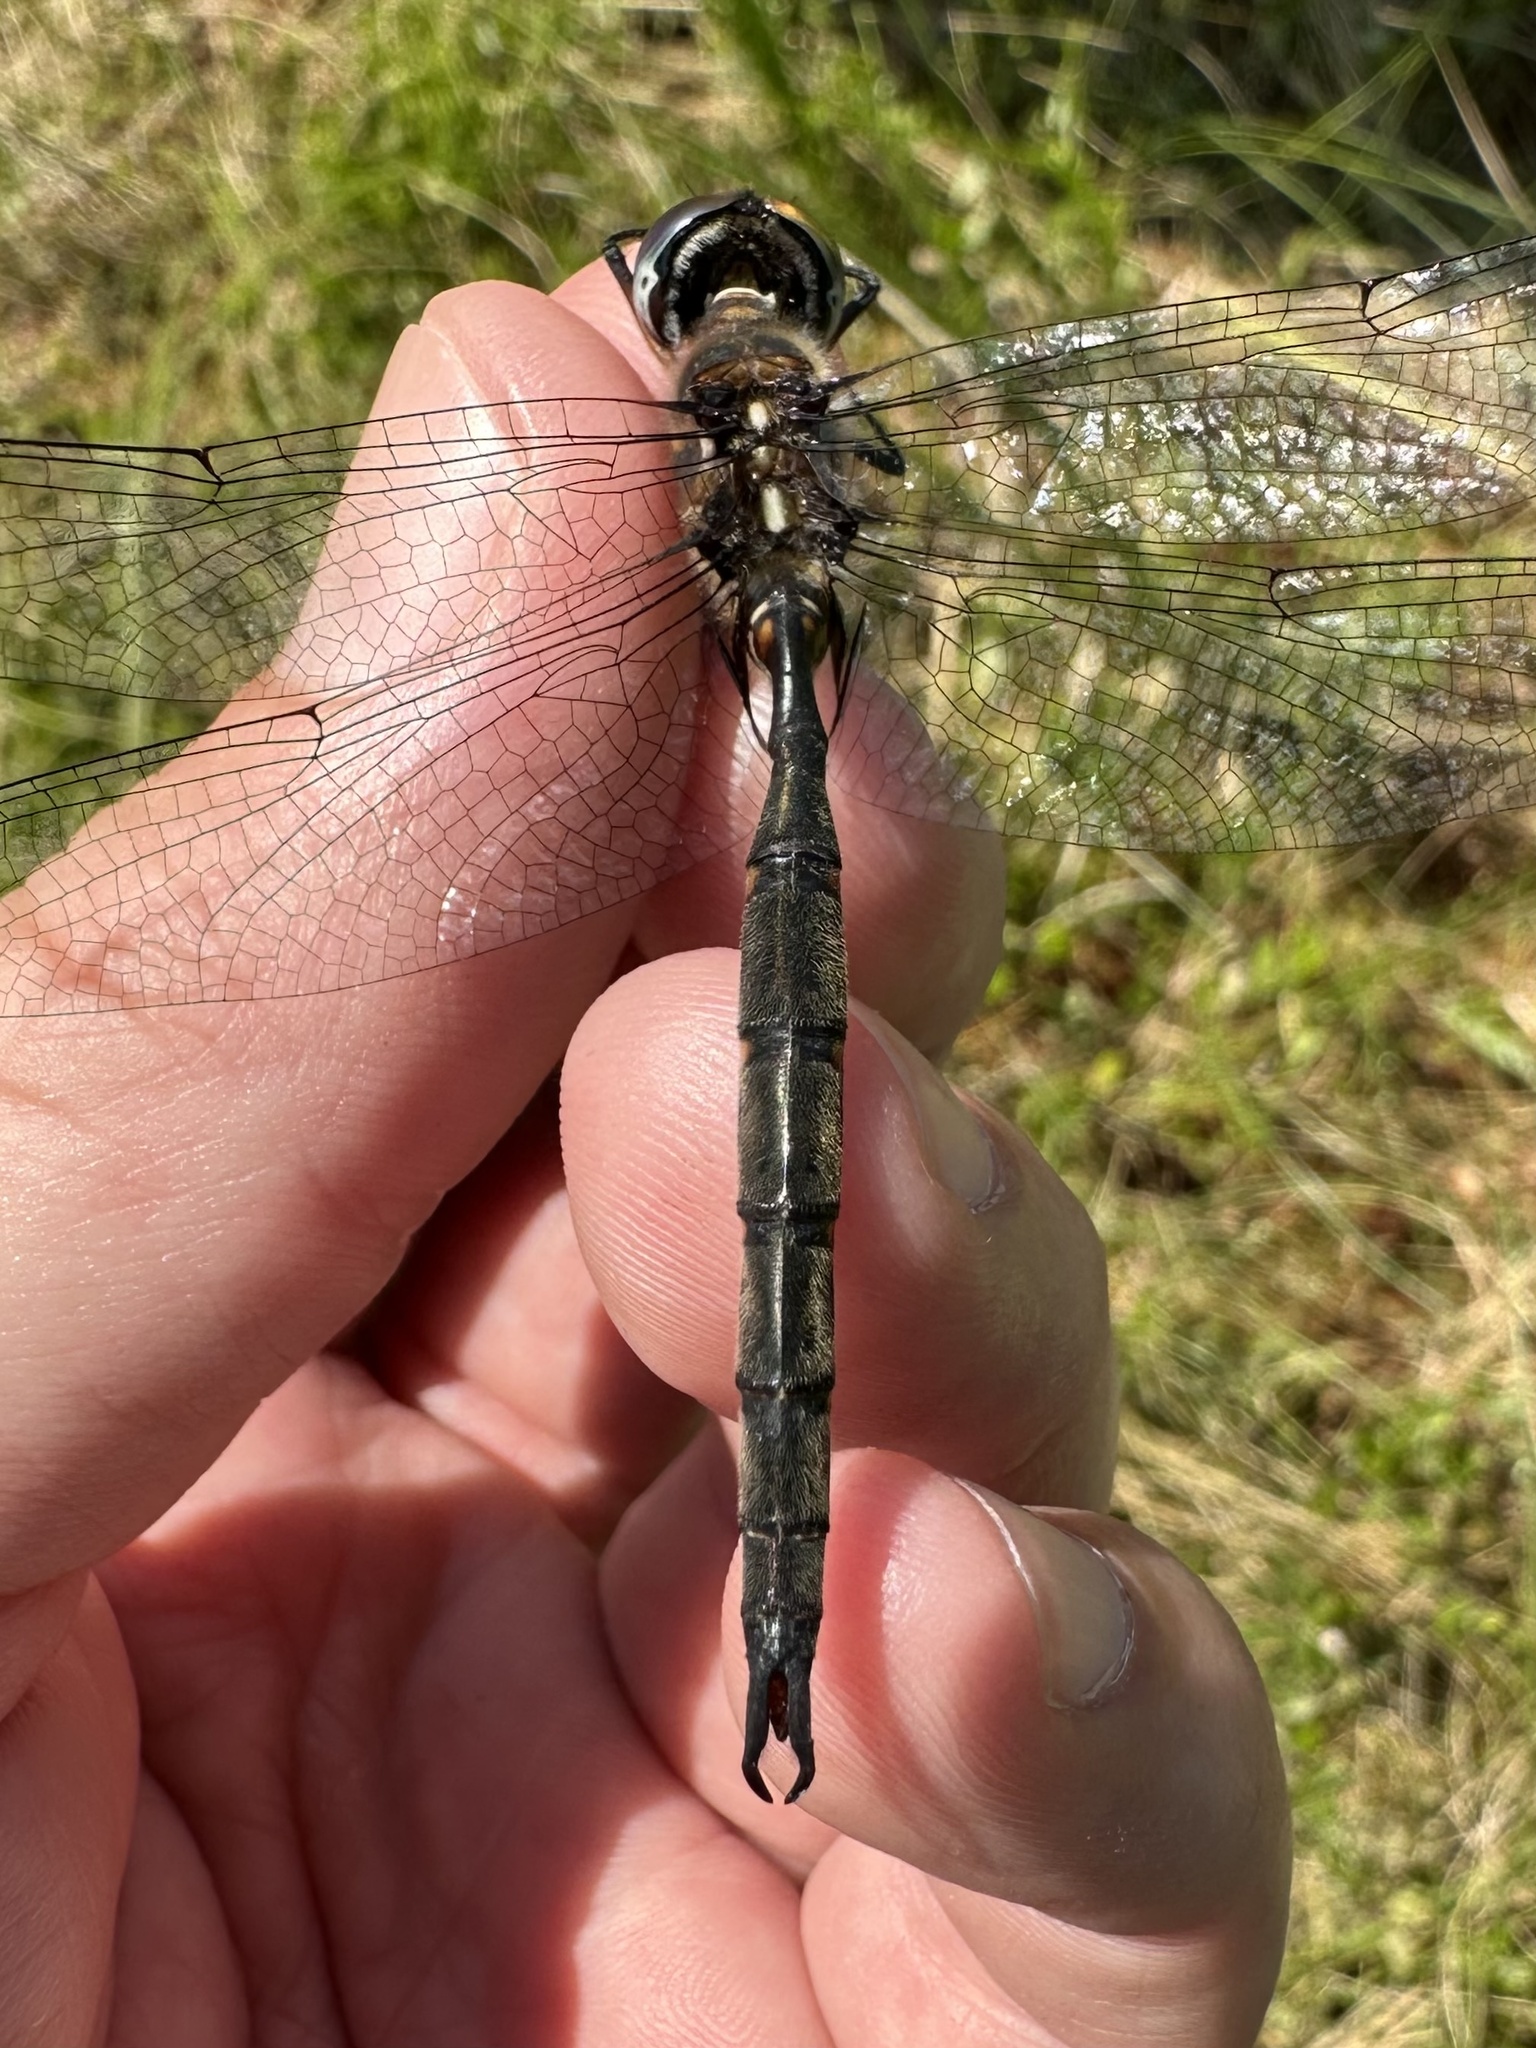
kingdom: Animalia
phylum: Arthropoda
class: Insecta
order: Odonata
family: Corduliidae
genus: Somatochlora
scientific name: Somatochlora incurvata
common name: Incurvate emerald
